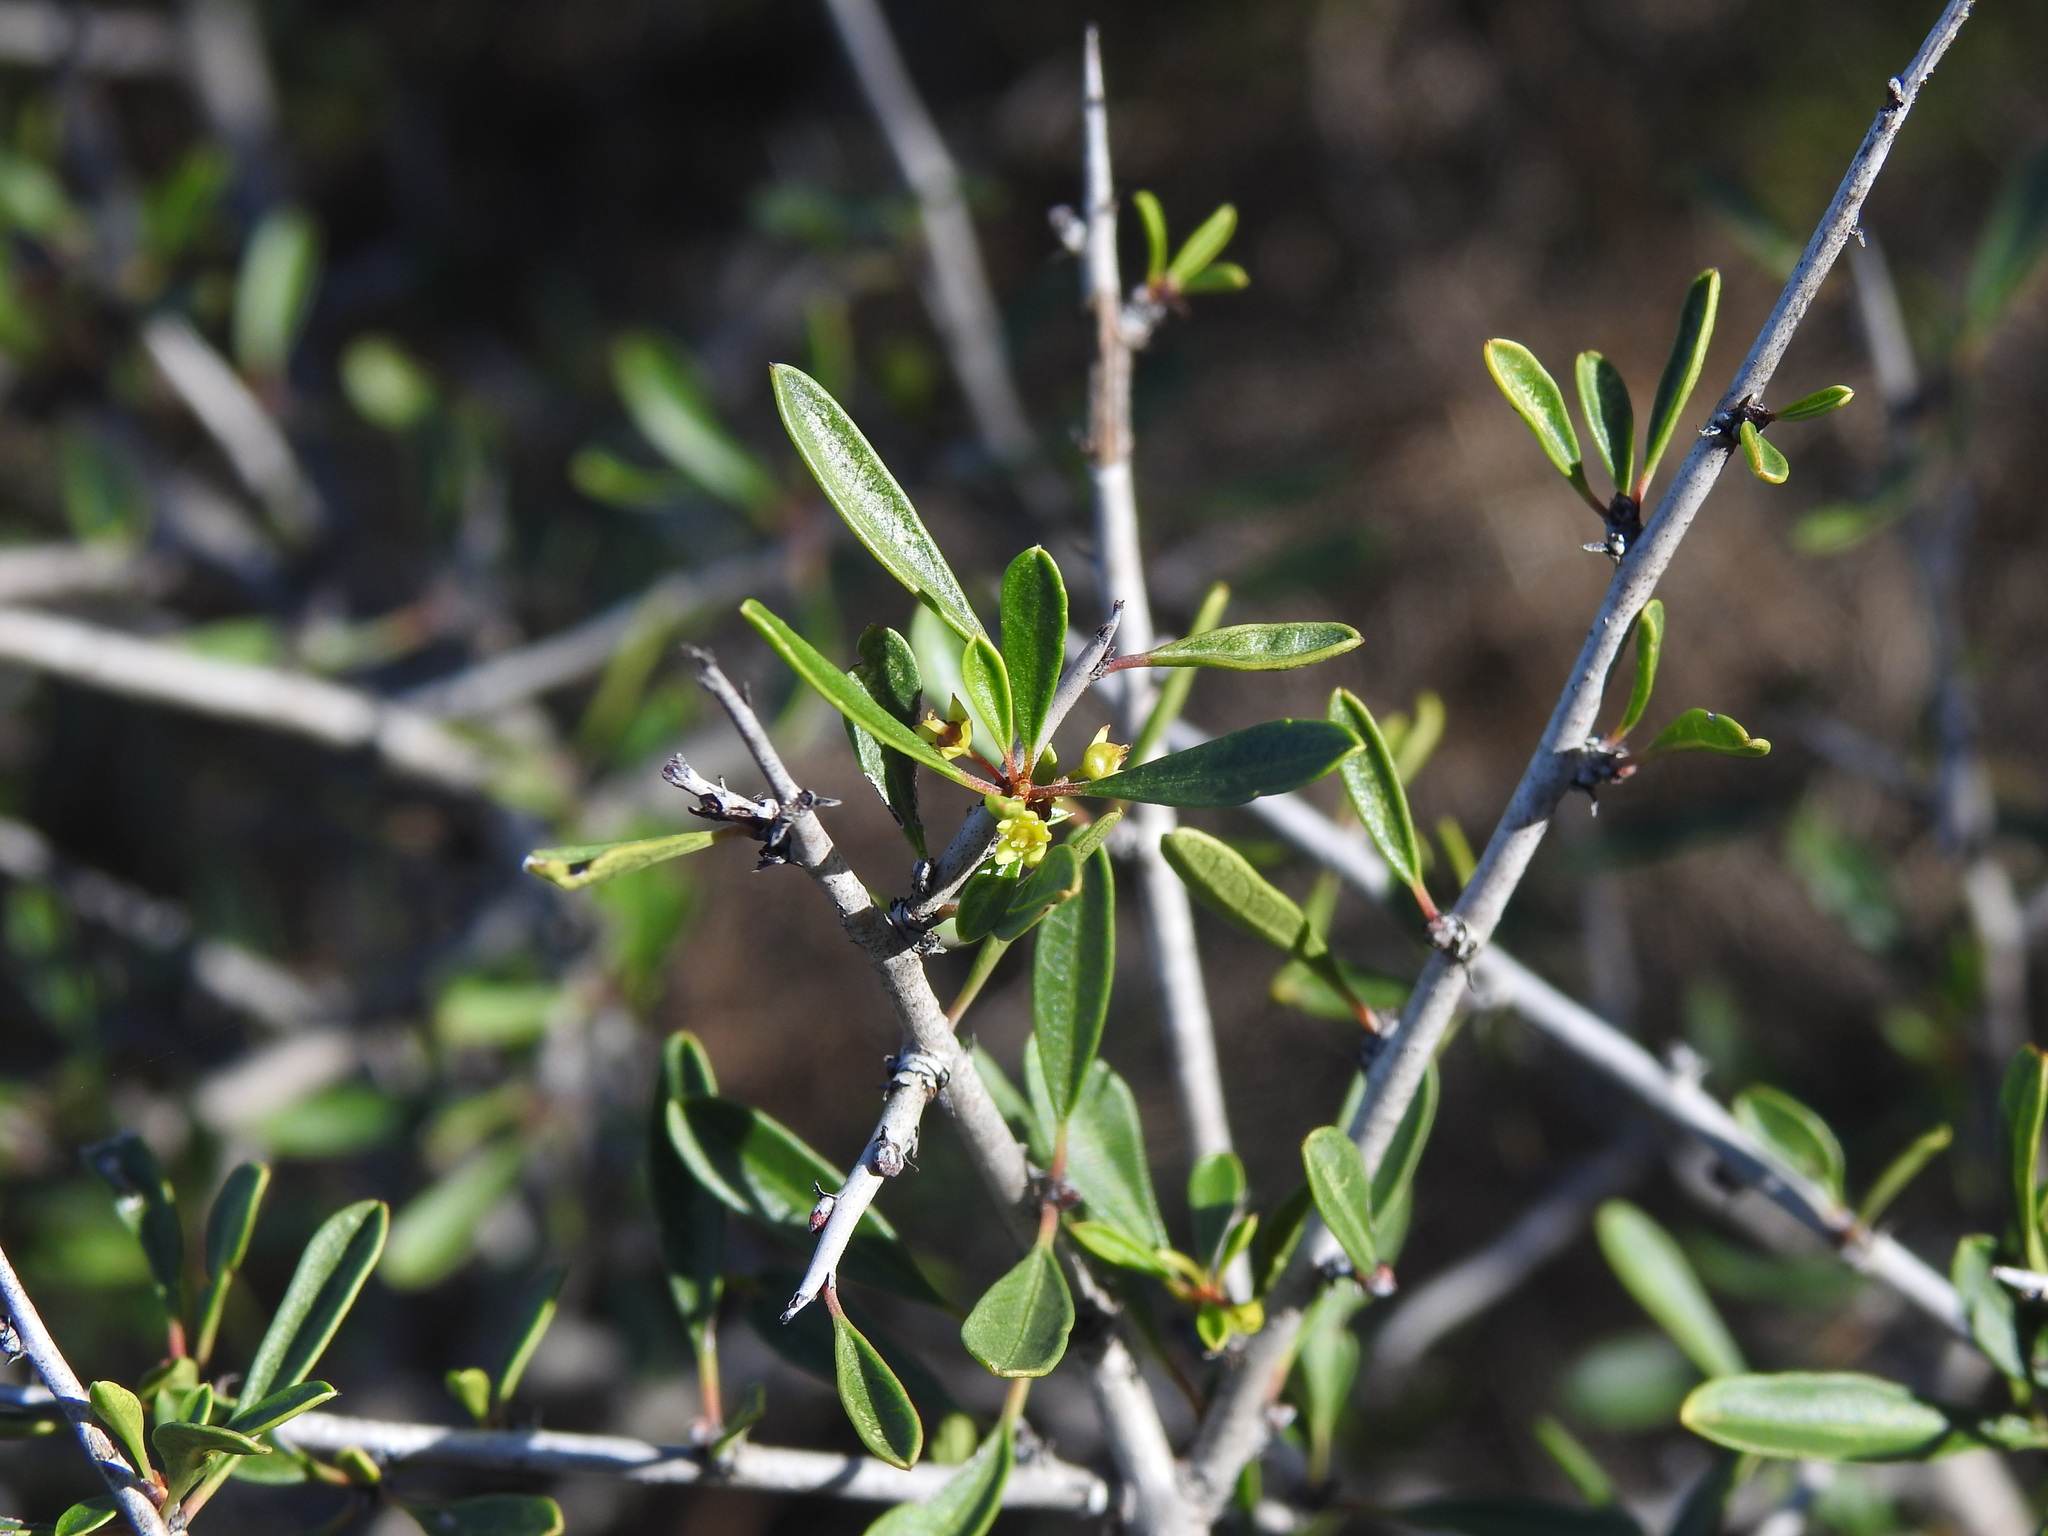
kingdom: Plantae
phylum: Tracheophyta
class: Magnoliopsida
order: Rosales
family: Rhamnaceae
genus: Rhamnus
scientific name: Rhamnus oleoides
